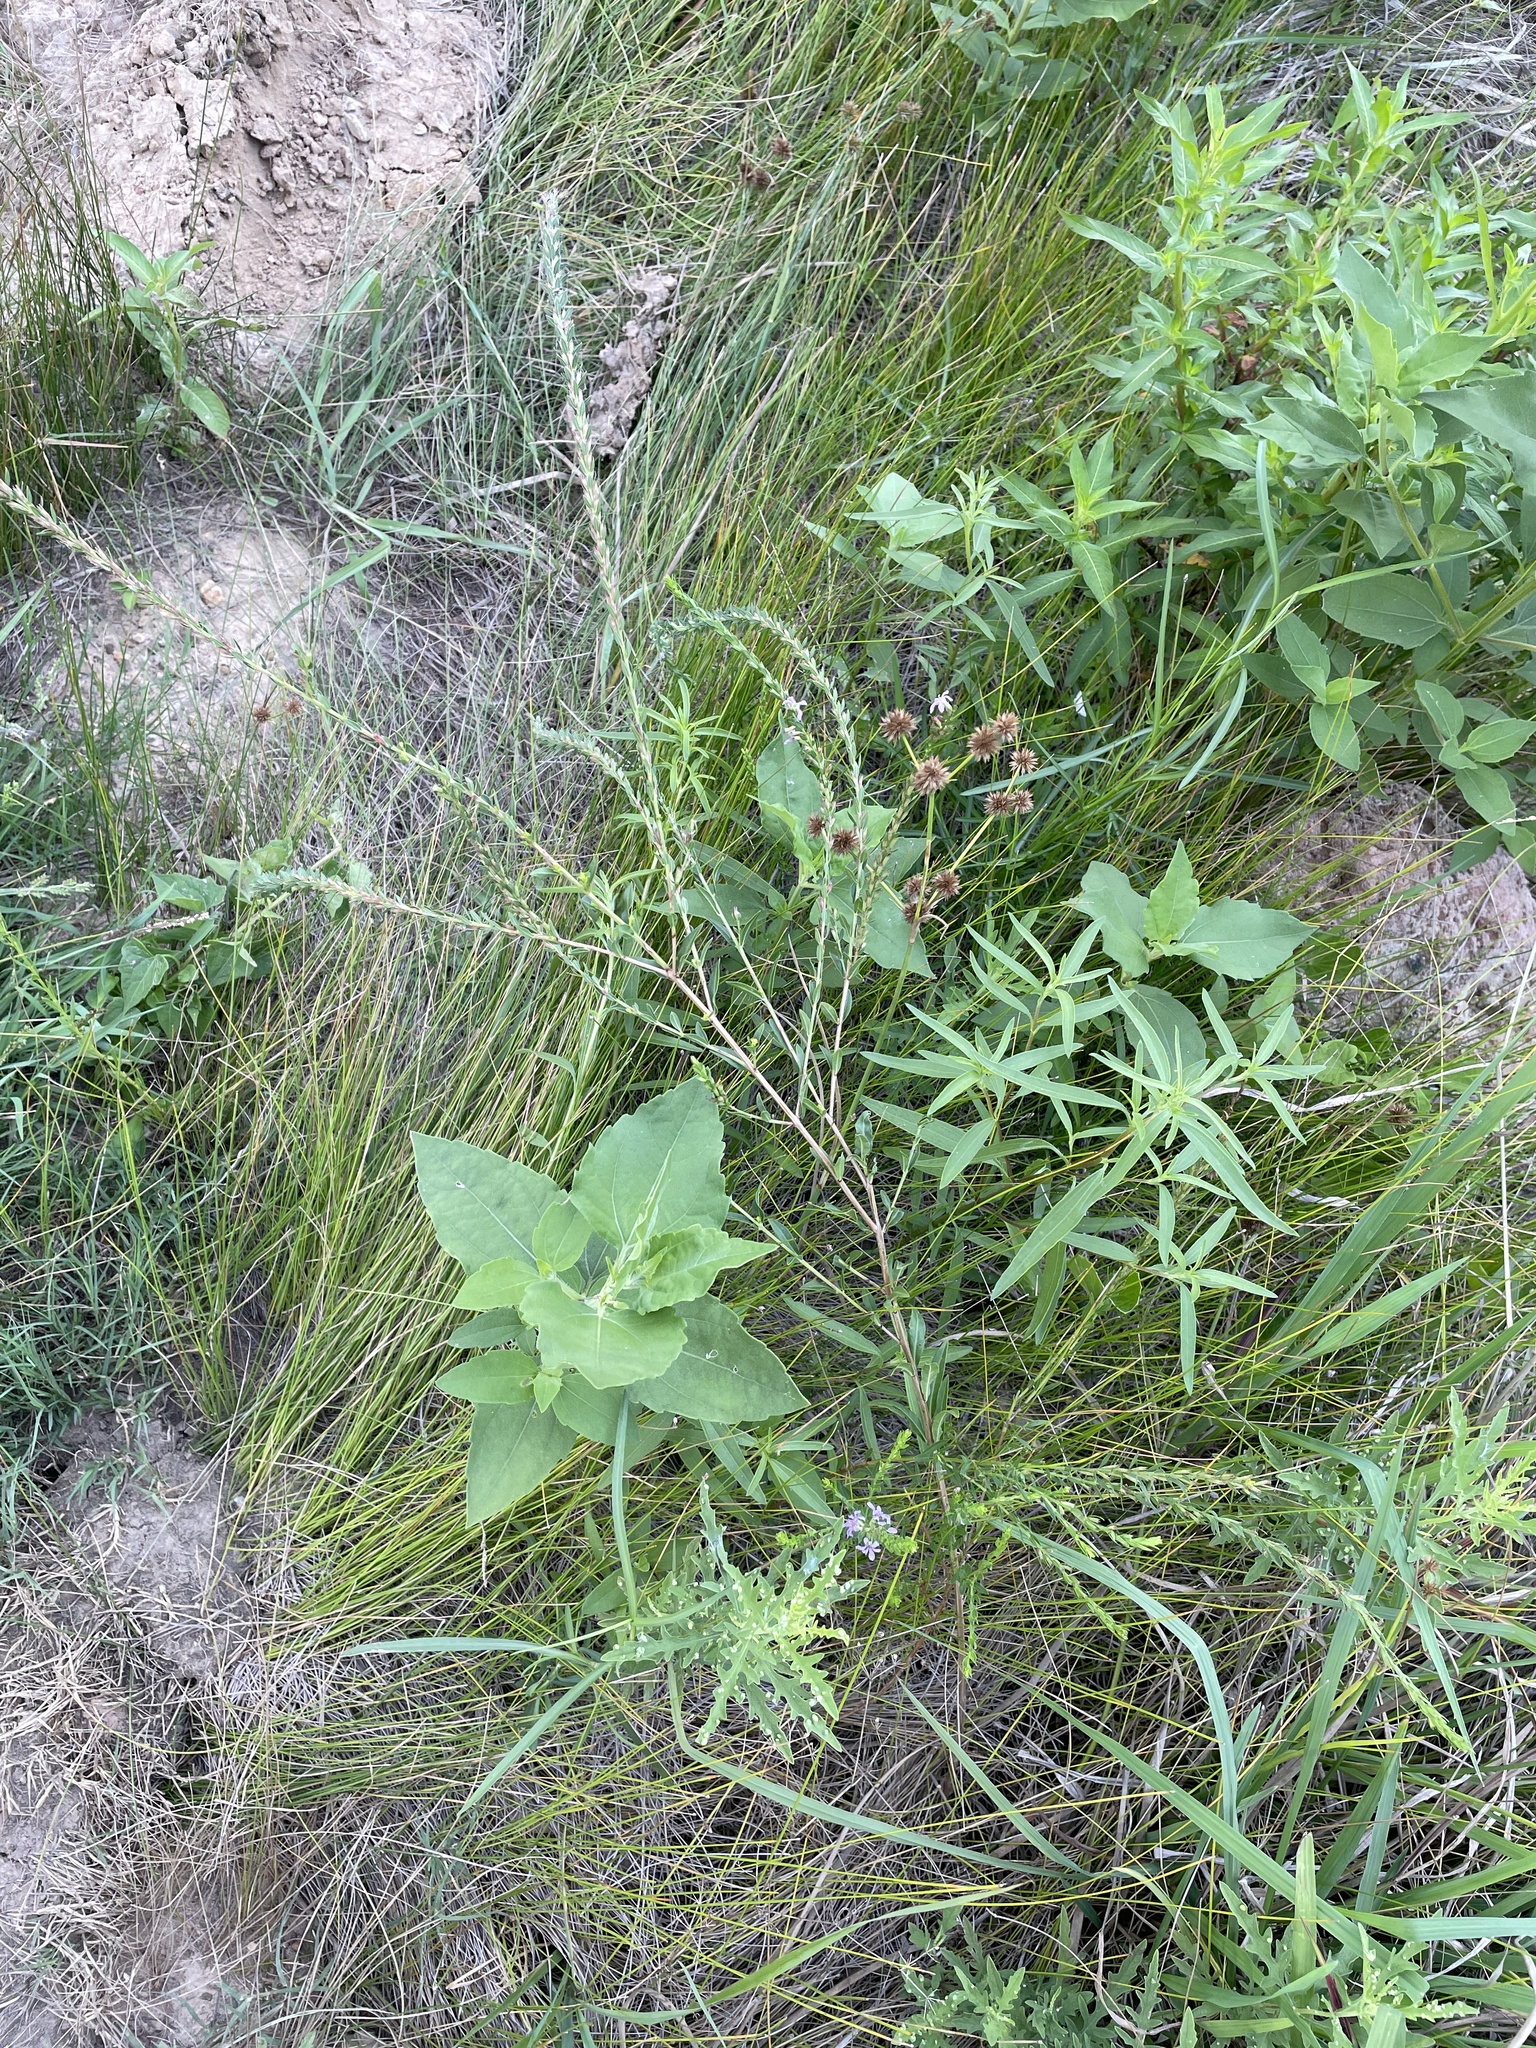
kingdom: Plantae
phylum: Tracheophyta
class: Magnoliopsida
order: Myrtales
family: Lythraceae
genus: Lythrum
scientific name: Lythrum alatum
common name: Winged loosestrife
